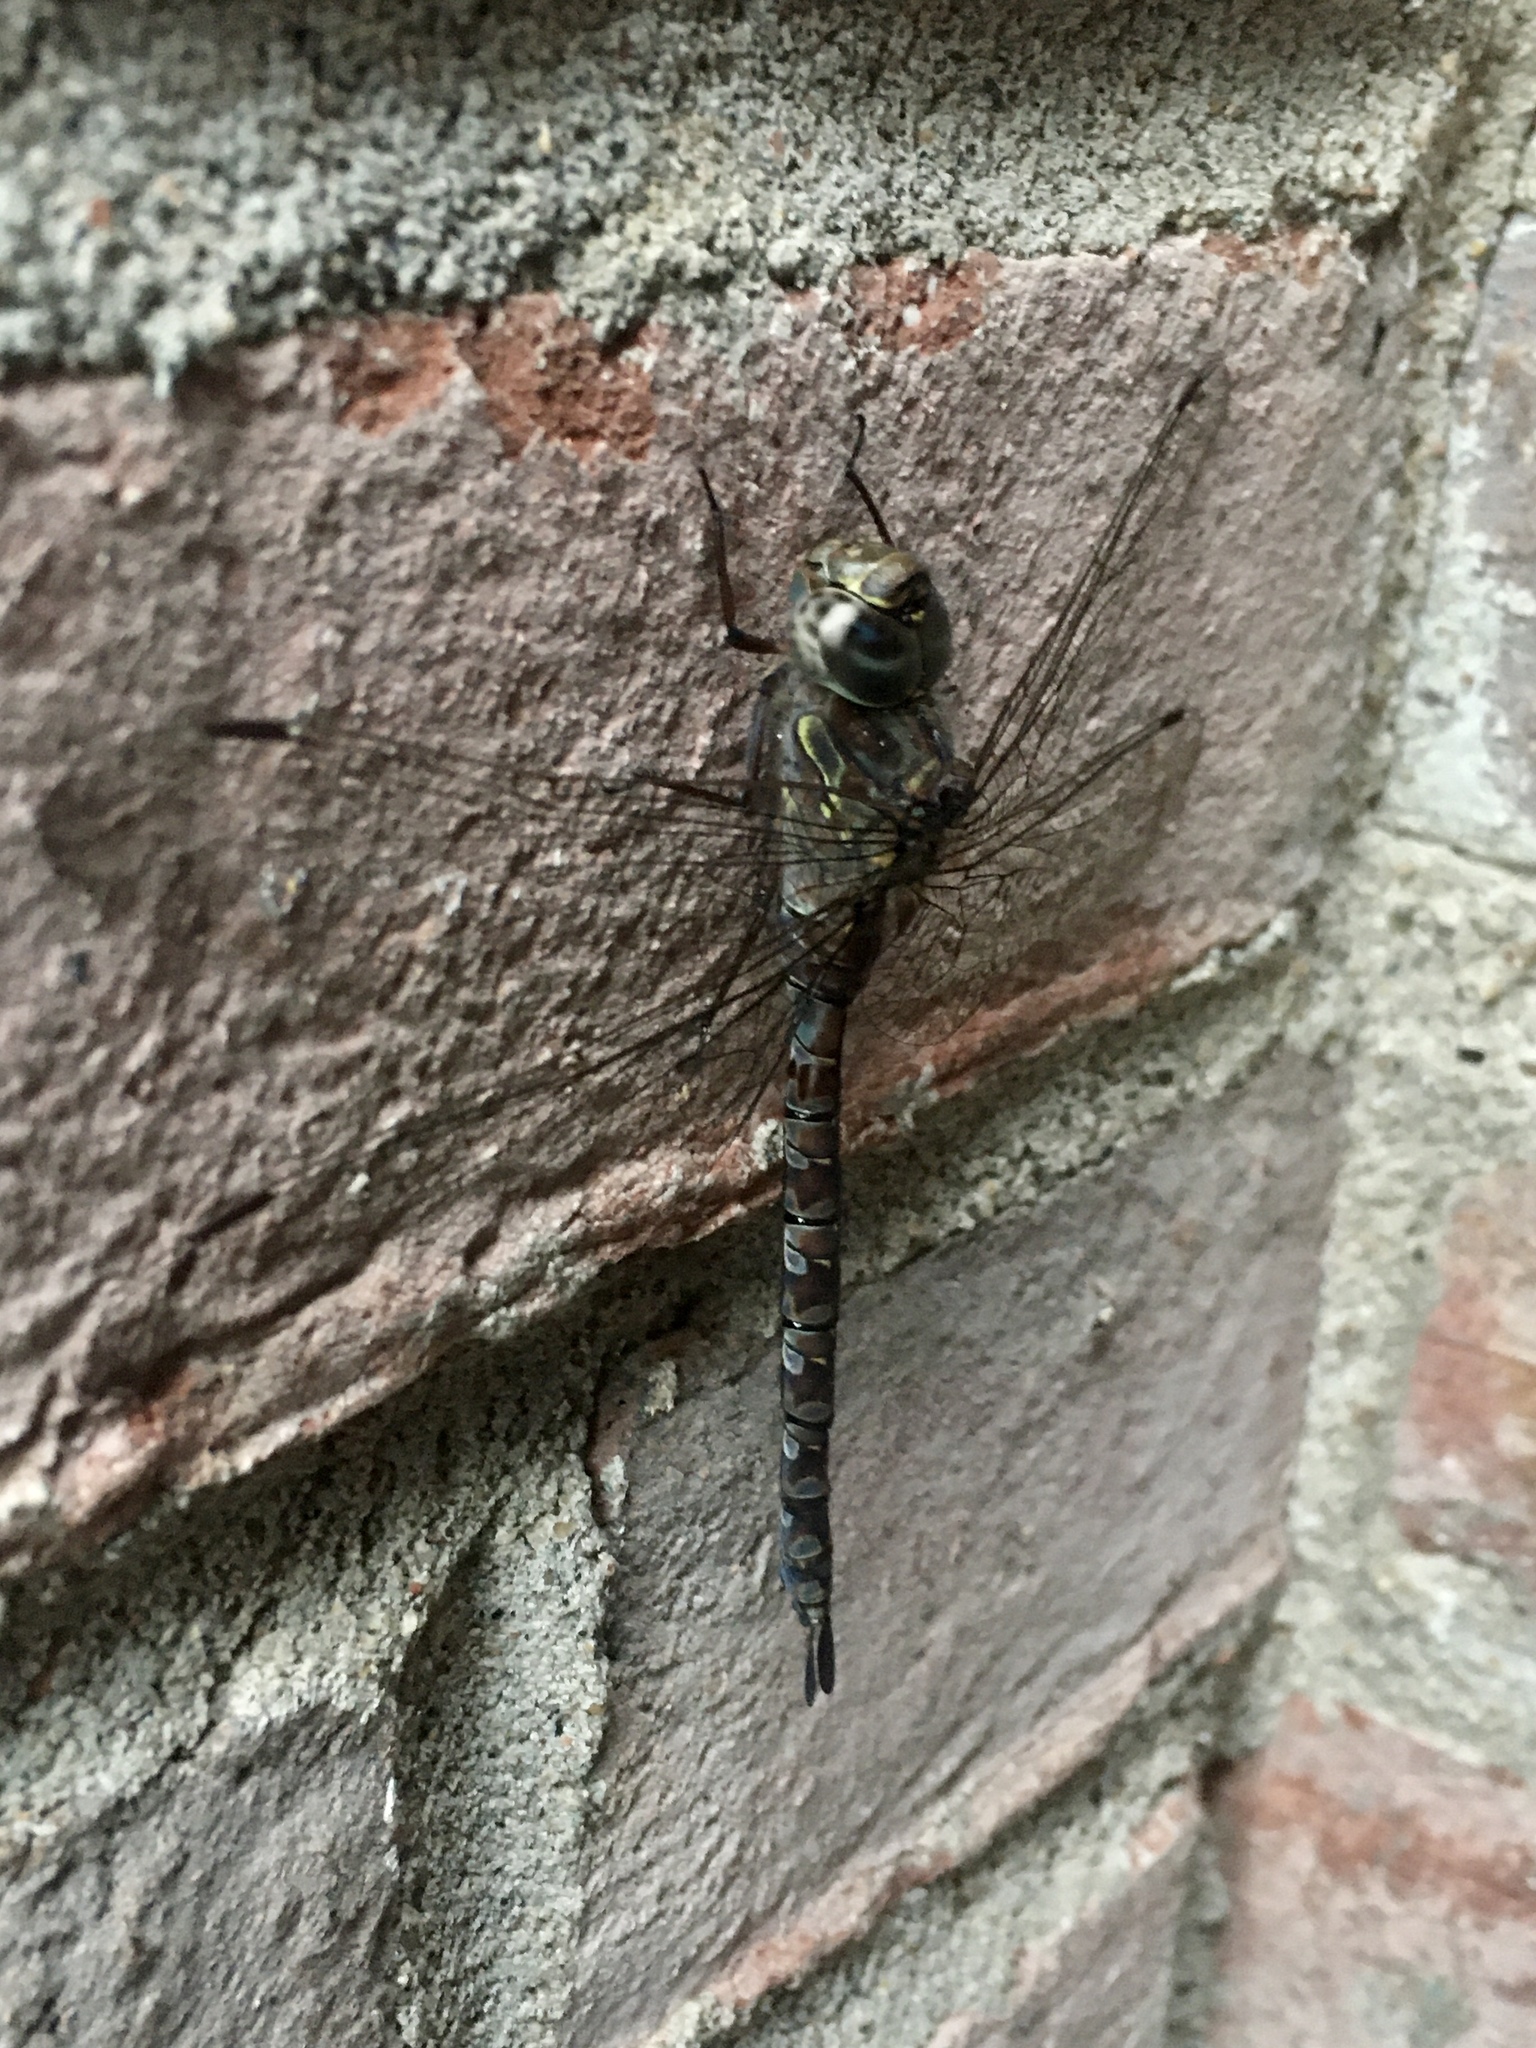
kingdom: Animalia
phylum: Arthropoda
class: Insecta
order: Odonata
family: Aeshnidae
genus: Aeshna
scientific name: Aeshna canadensis
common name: Canada darner
